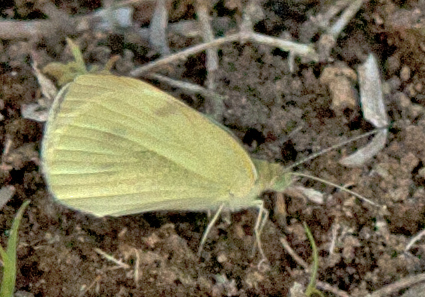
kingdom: Animalia
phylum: Arthropoda
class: Insecta
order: Lepidoptera
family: Pieridae
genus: Pieris
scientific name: Pieris rapae
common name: Small white
